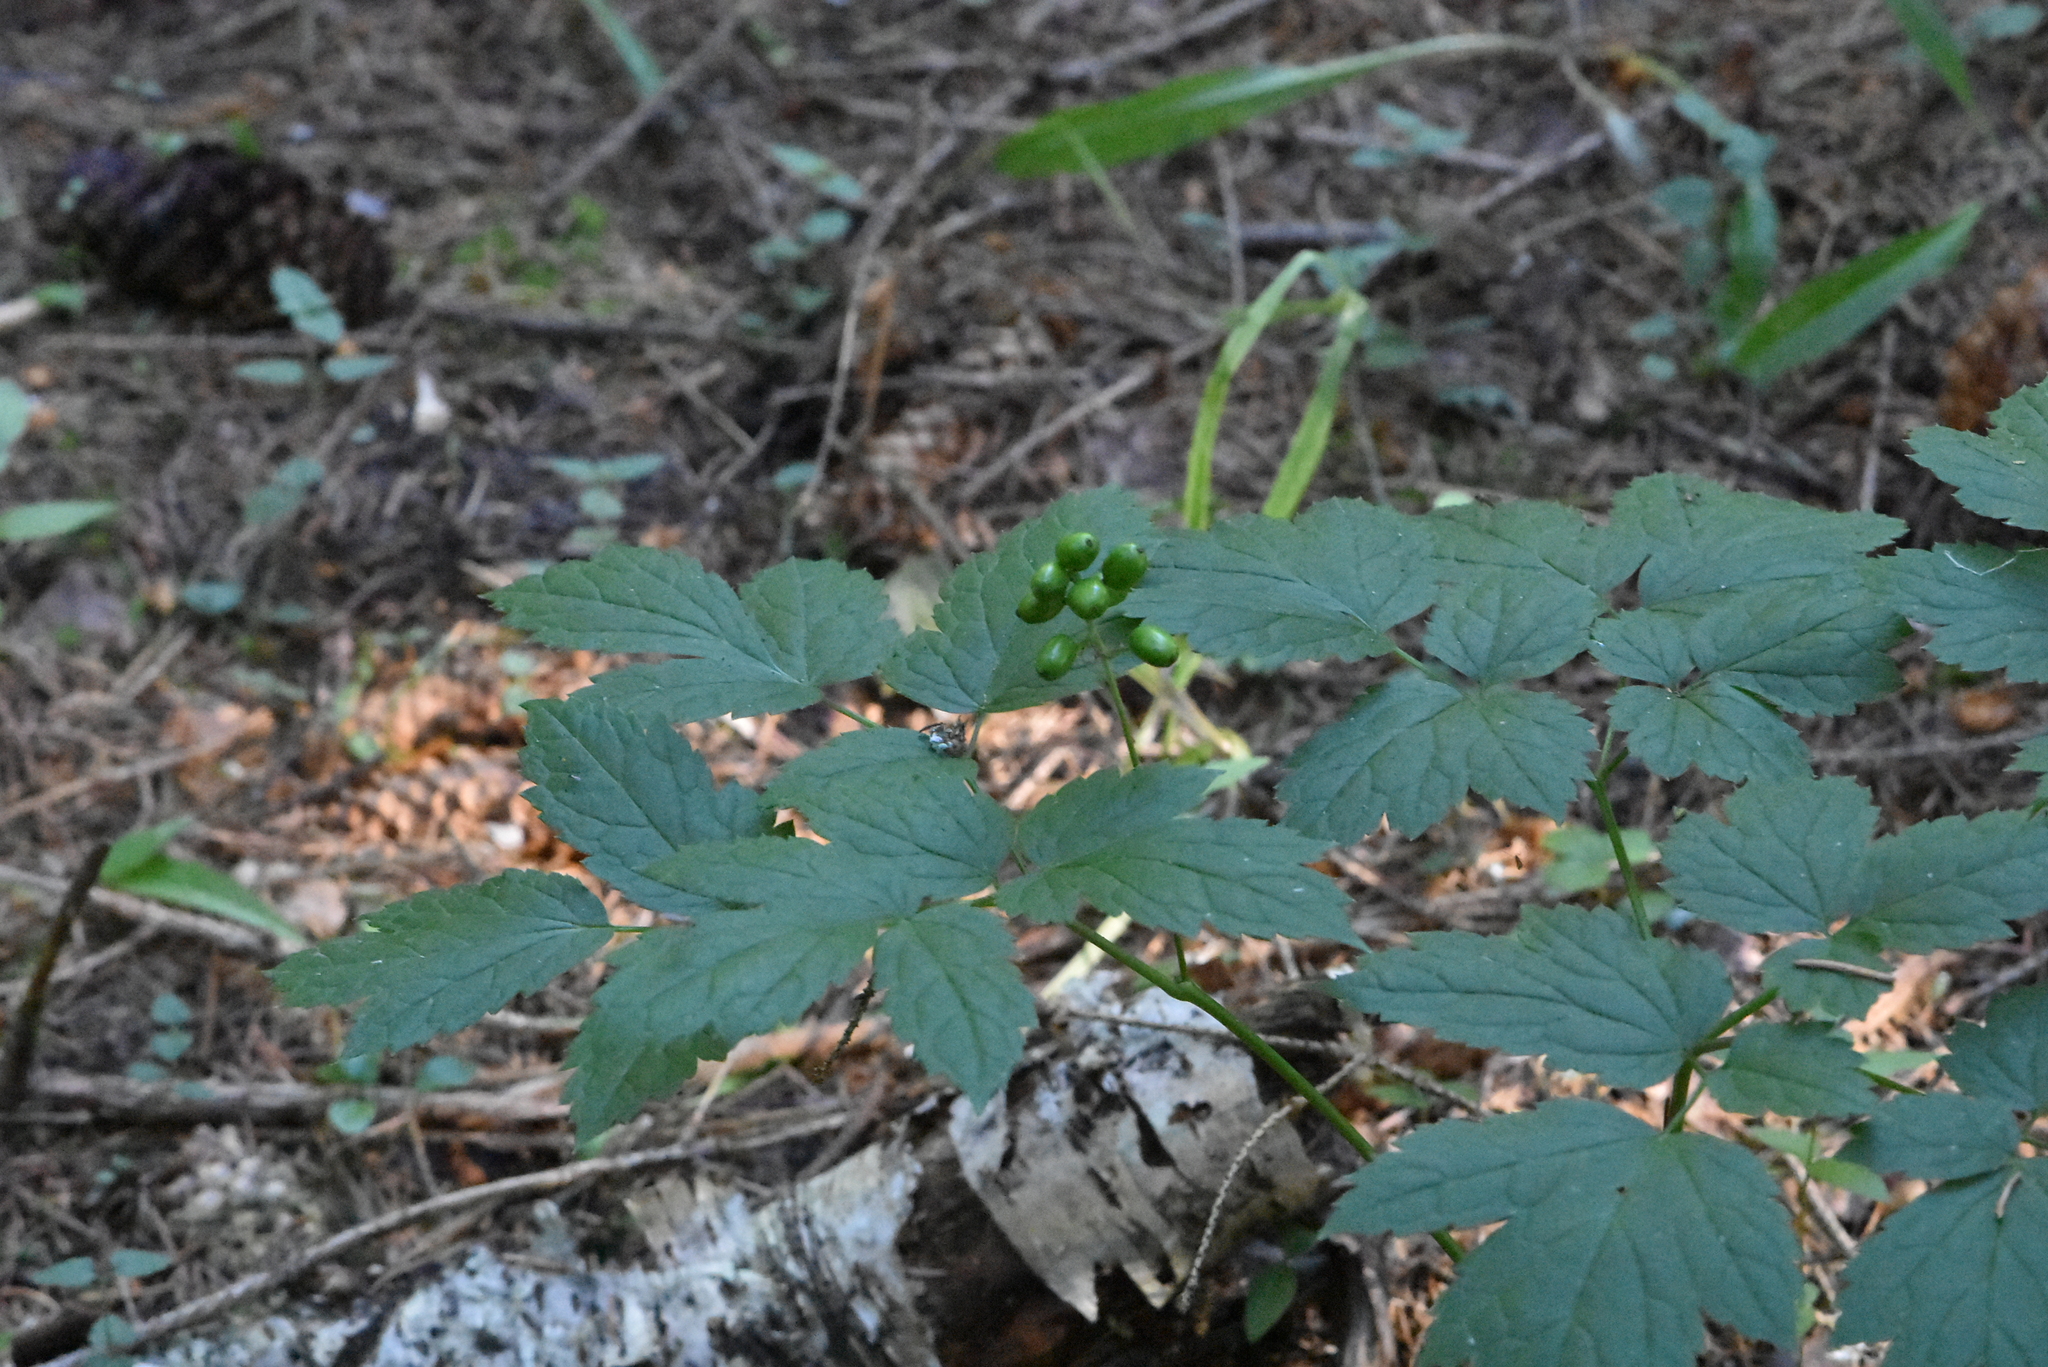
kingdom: Plantae
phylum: Tracheophyta
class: Magnoliopsida
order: Ranunculales
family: Ranunculaceae
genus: Actaea
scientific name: Actaea spicata
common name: Baneberry
